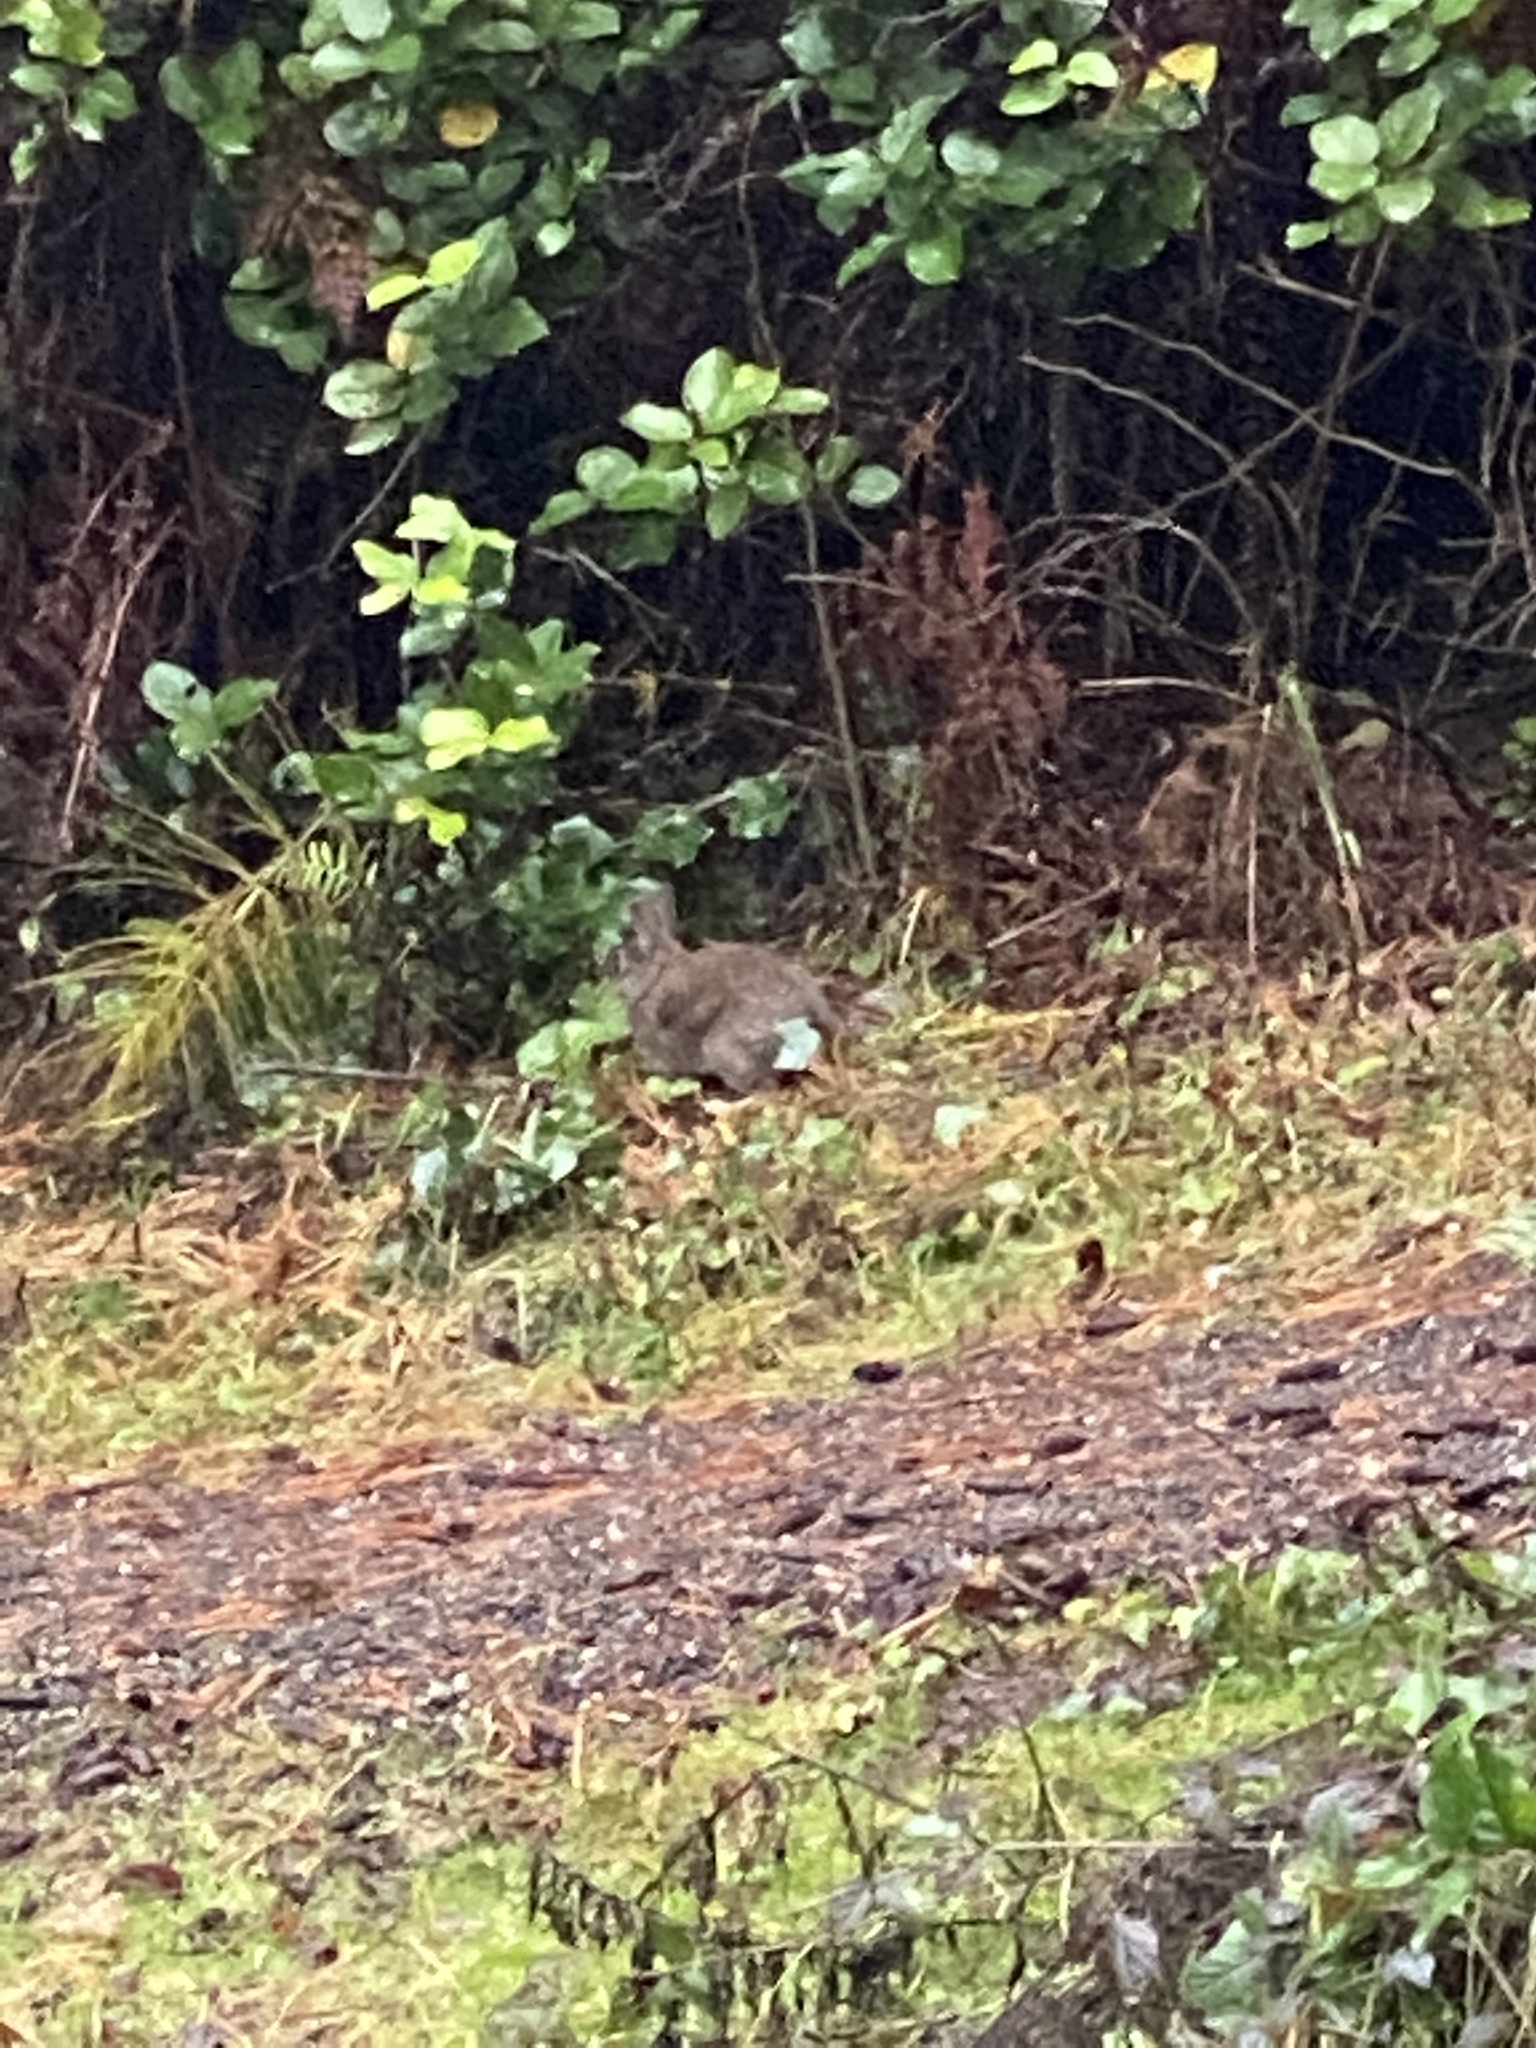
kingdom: Animalia
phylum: Chordata
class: Mammalia
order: Lagomorpha
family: Leporidae
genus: Sylvilagus
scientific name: Sylvilagus bachmani
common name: Brush rabbit
